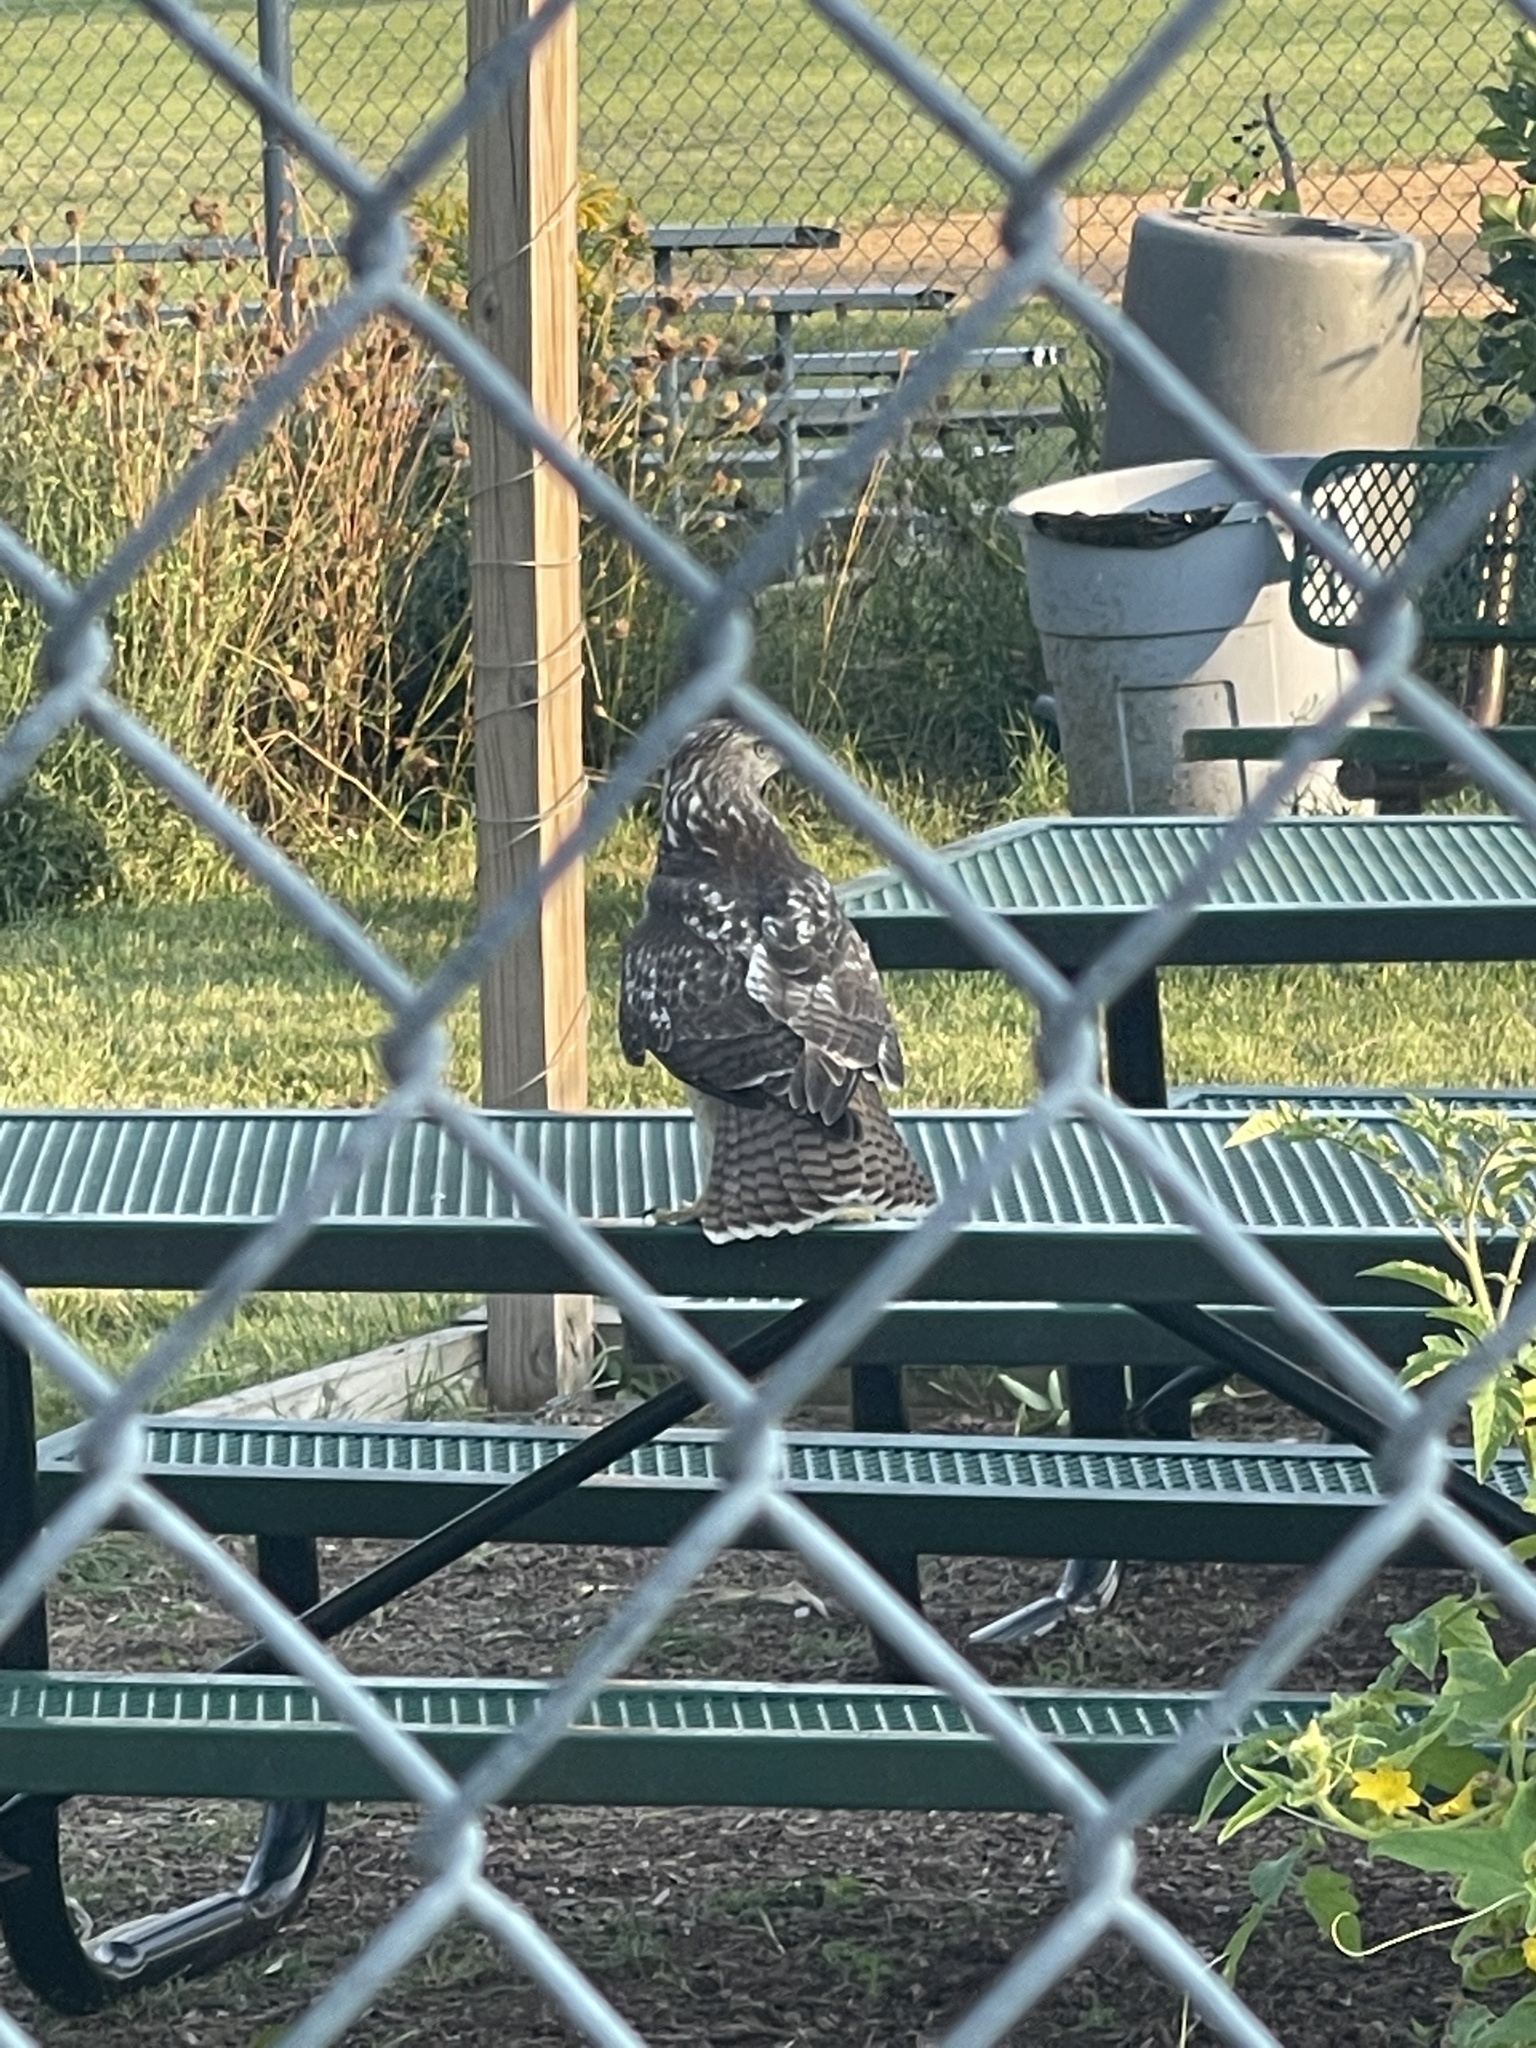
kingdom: Animalia
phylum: Chordata
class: Aves
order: Accipitriformes
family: Accipitridae
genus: Buteo
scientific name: Buteo jamaicensis
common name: Red-tailed hawk
